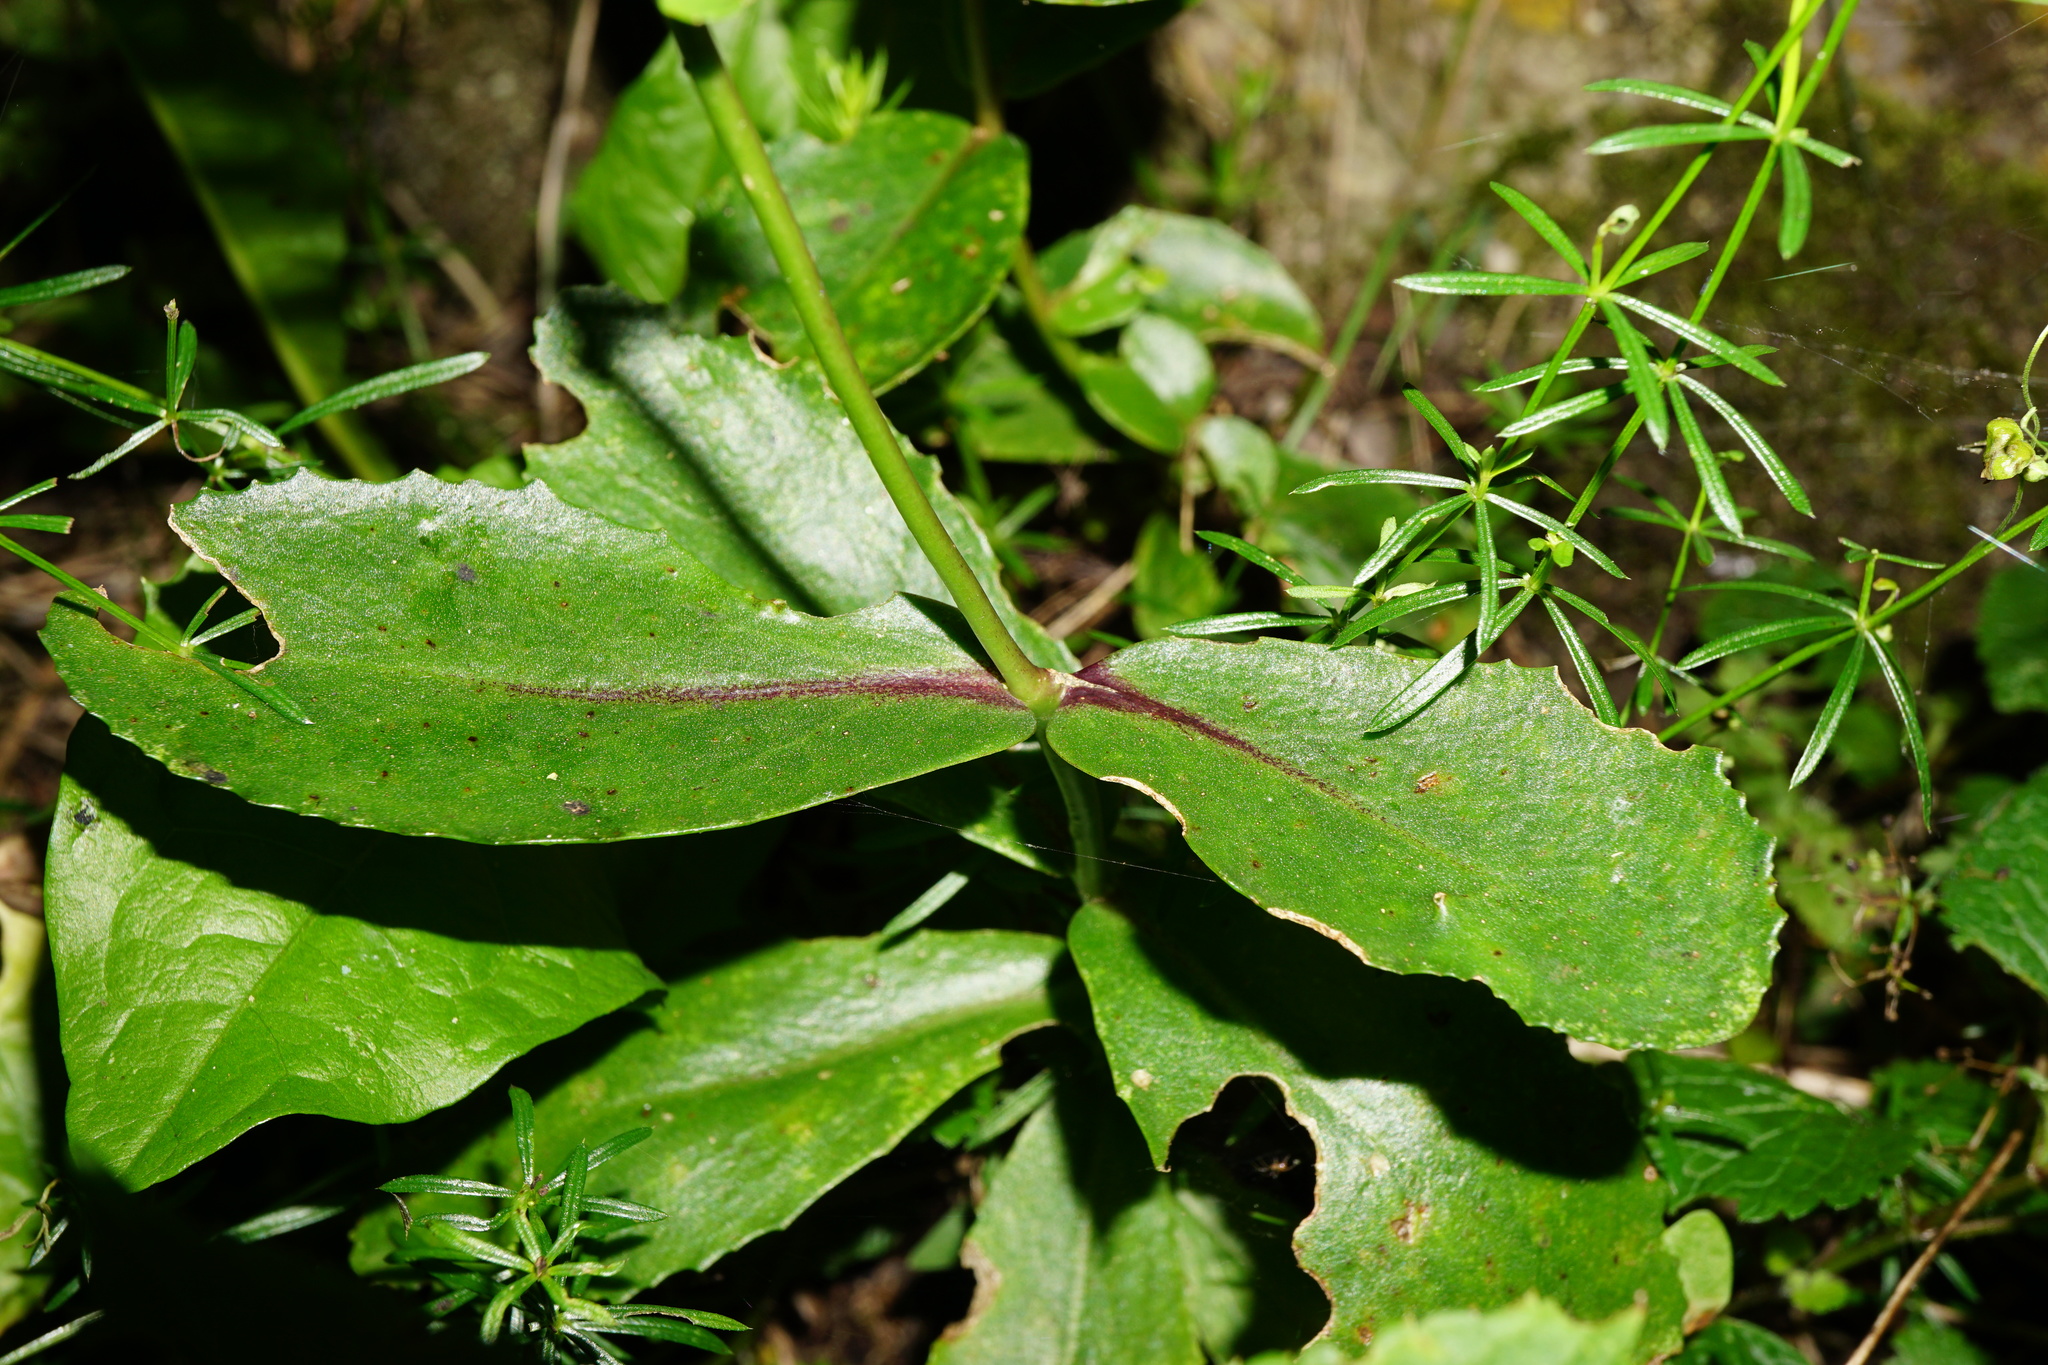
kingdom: Plantae
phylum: Tracheophyta
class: Magnoliopsida
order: Saxifragales
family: Crassulaceae
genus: Hylotelephium
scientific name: Hylotelephium maximum
